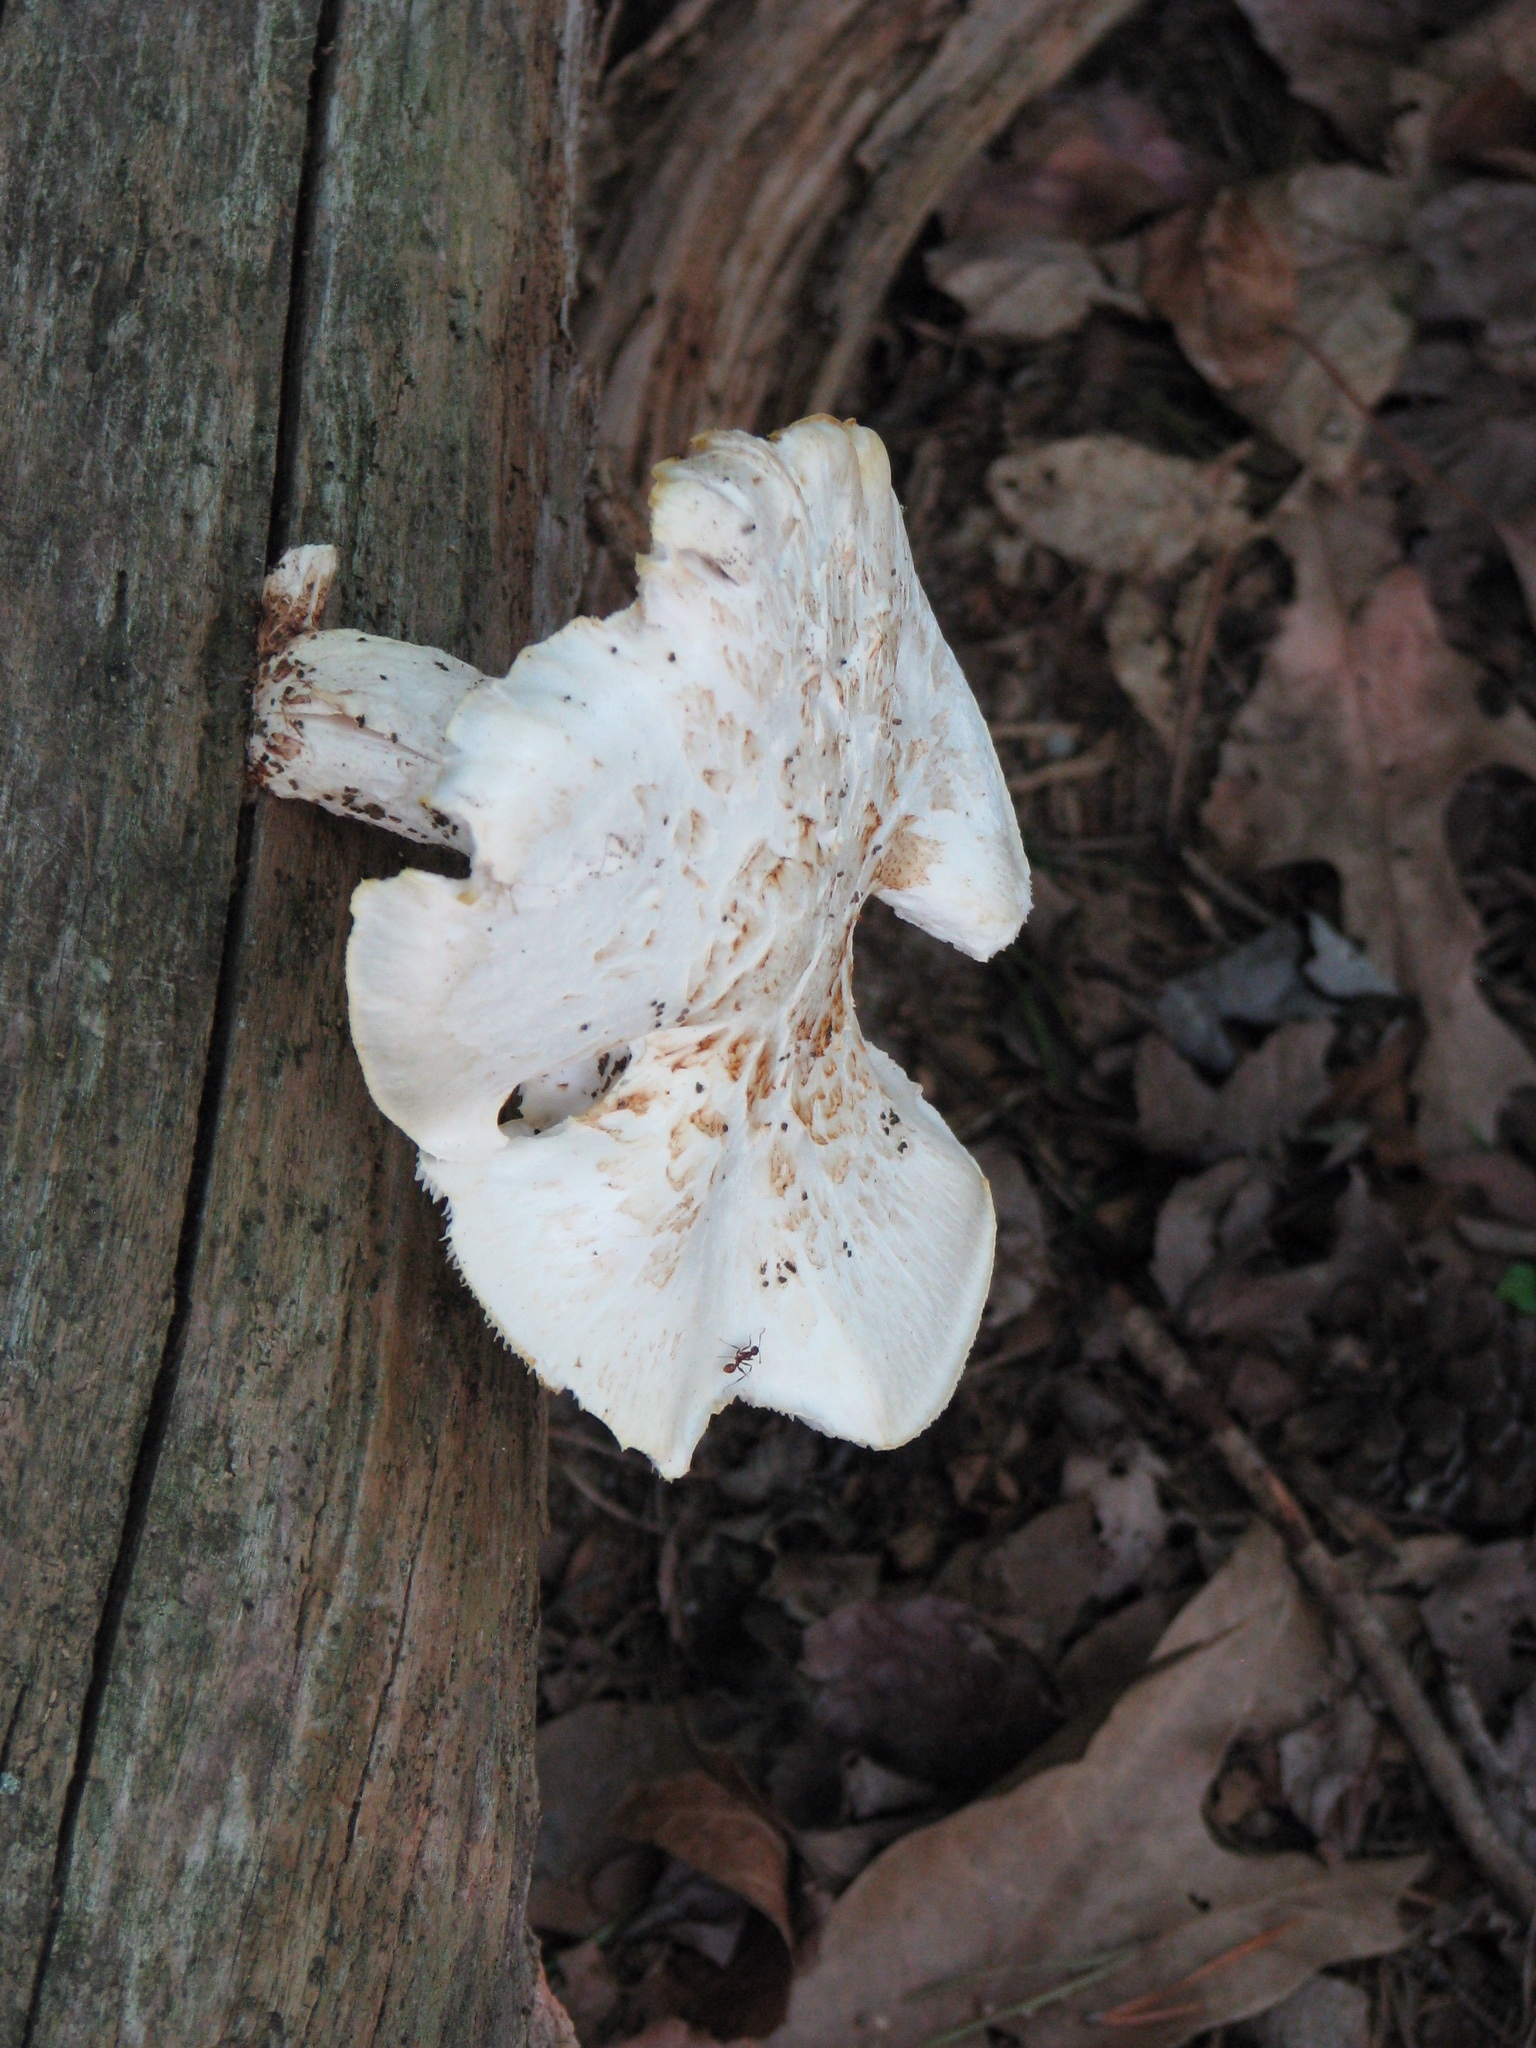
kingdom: Fungi
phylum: Basidiomycota
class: Agaricomycetes
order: Russulales
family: Russulaceae
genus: Russula
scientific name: Russula brevipes
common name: Short-stemmed russula
